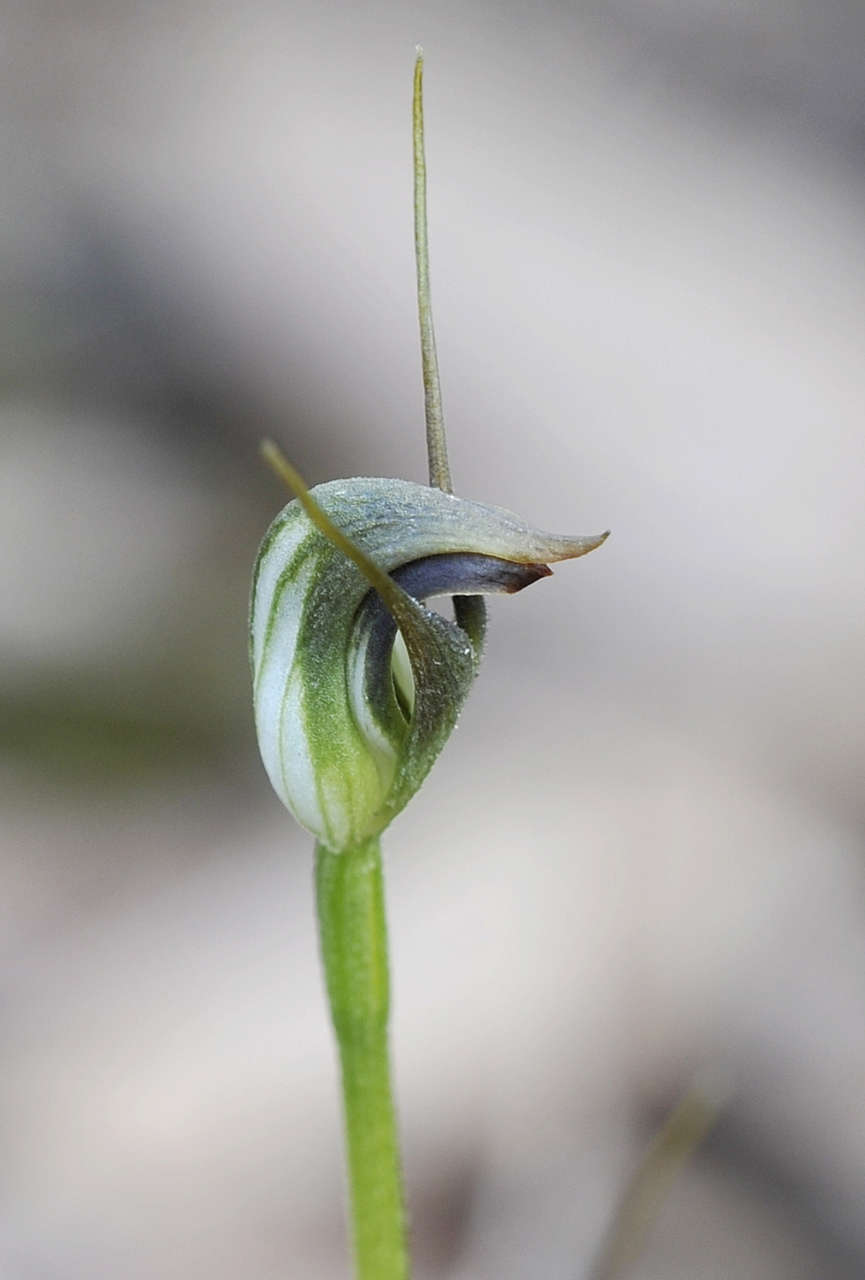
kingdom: Plantae
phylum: Tracheophyta
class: Liliopsida
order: Asparagales
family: Orchidaceae
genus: Pterostylis
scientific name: Pterostylis pedunculata
